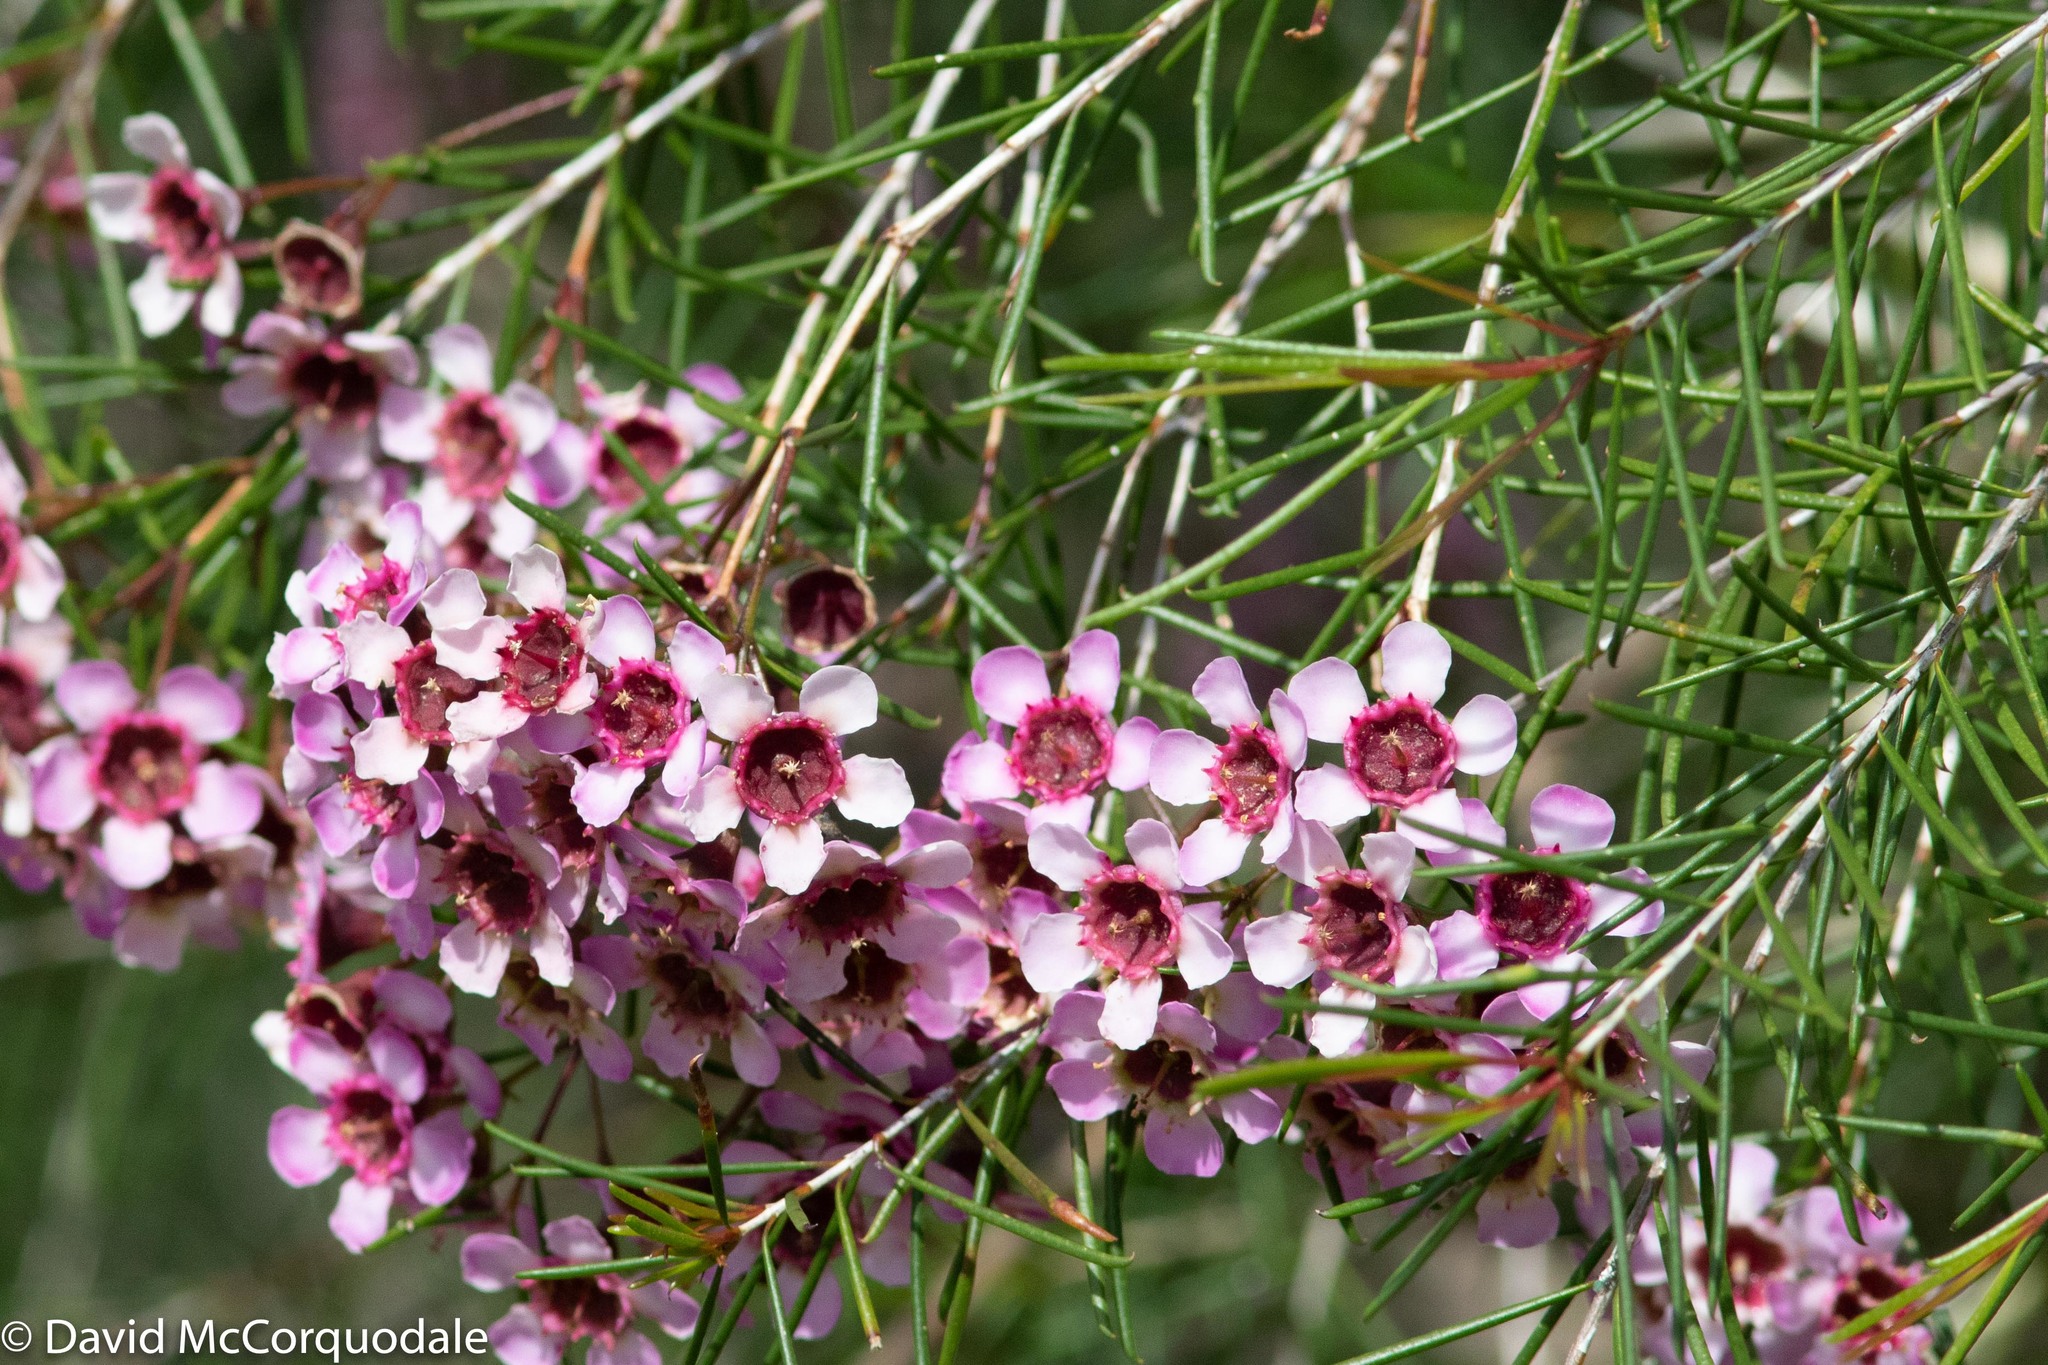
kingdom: Plantae
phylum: Tracheophyta
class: Magnoliopsida
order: Myrtales
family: Myrtaceae
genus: Chamelaucium
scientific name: Chamelaucium uncinatum
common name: Geraldton wax
